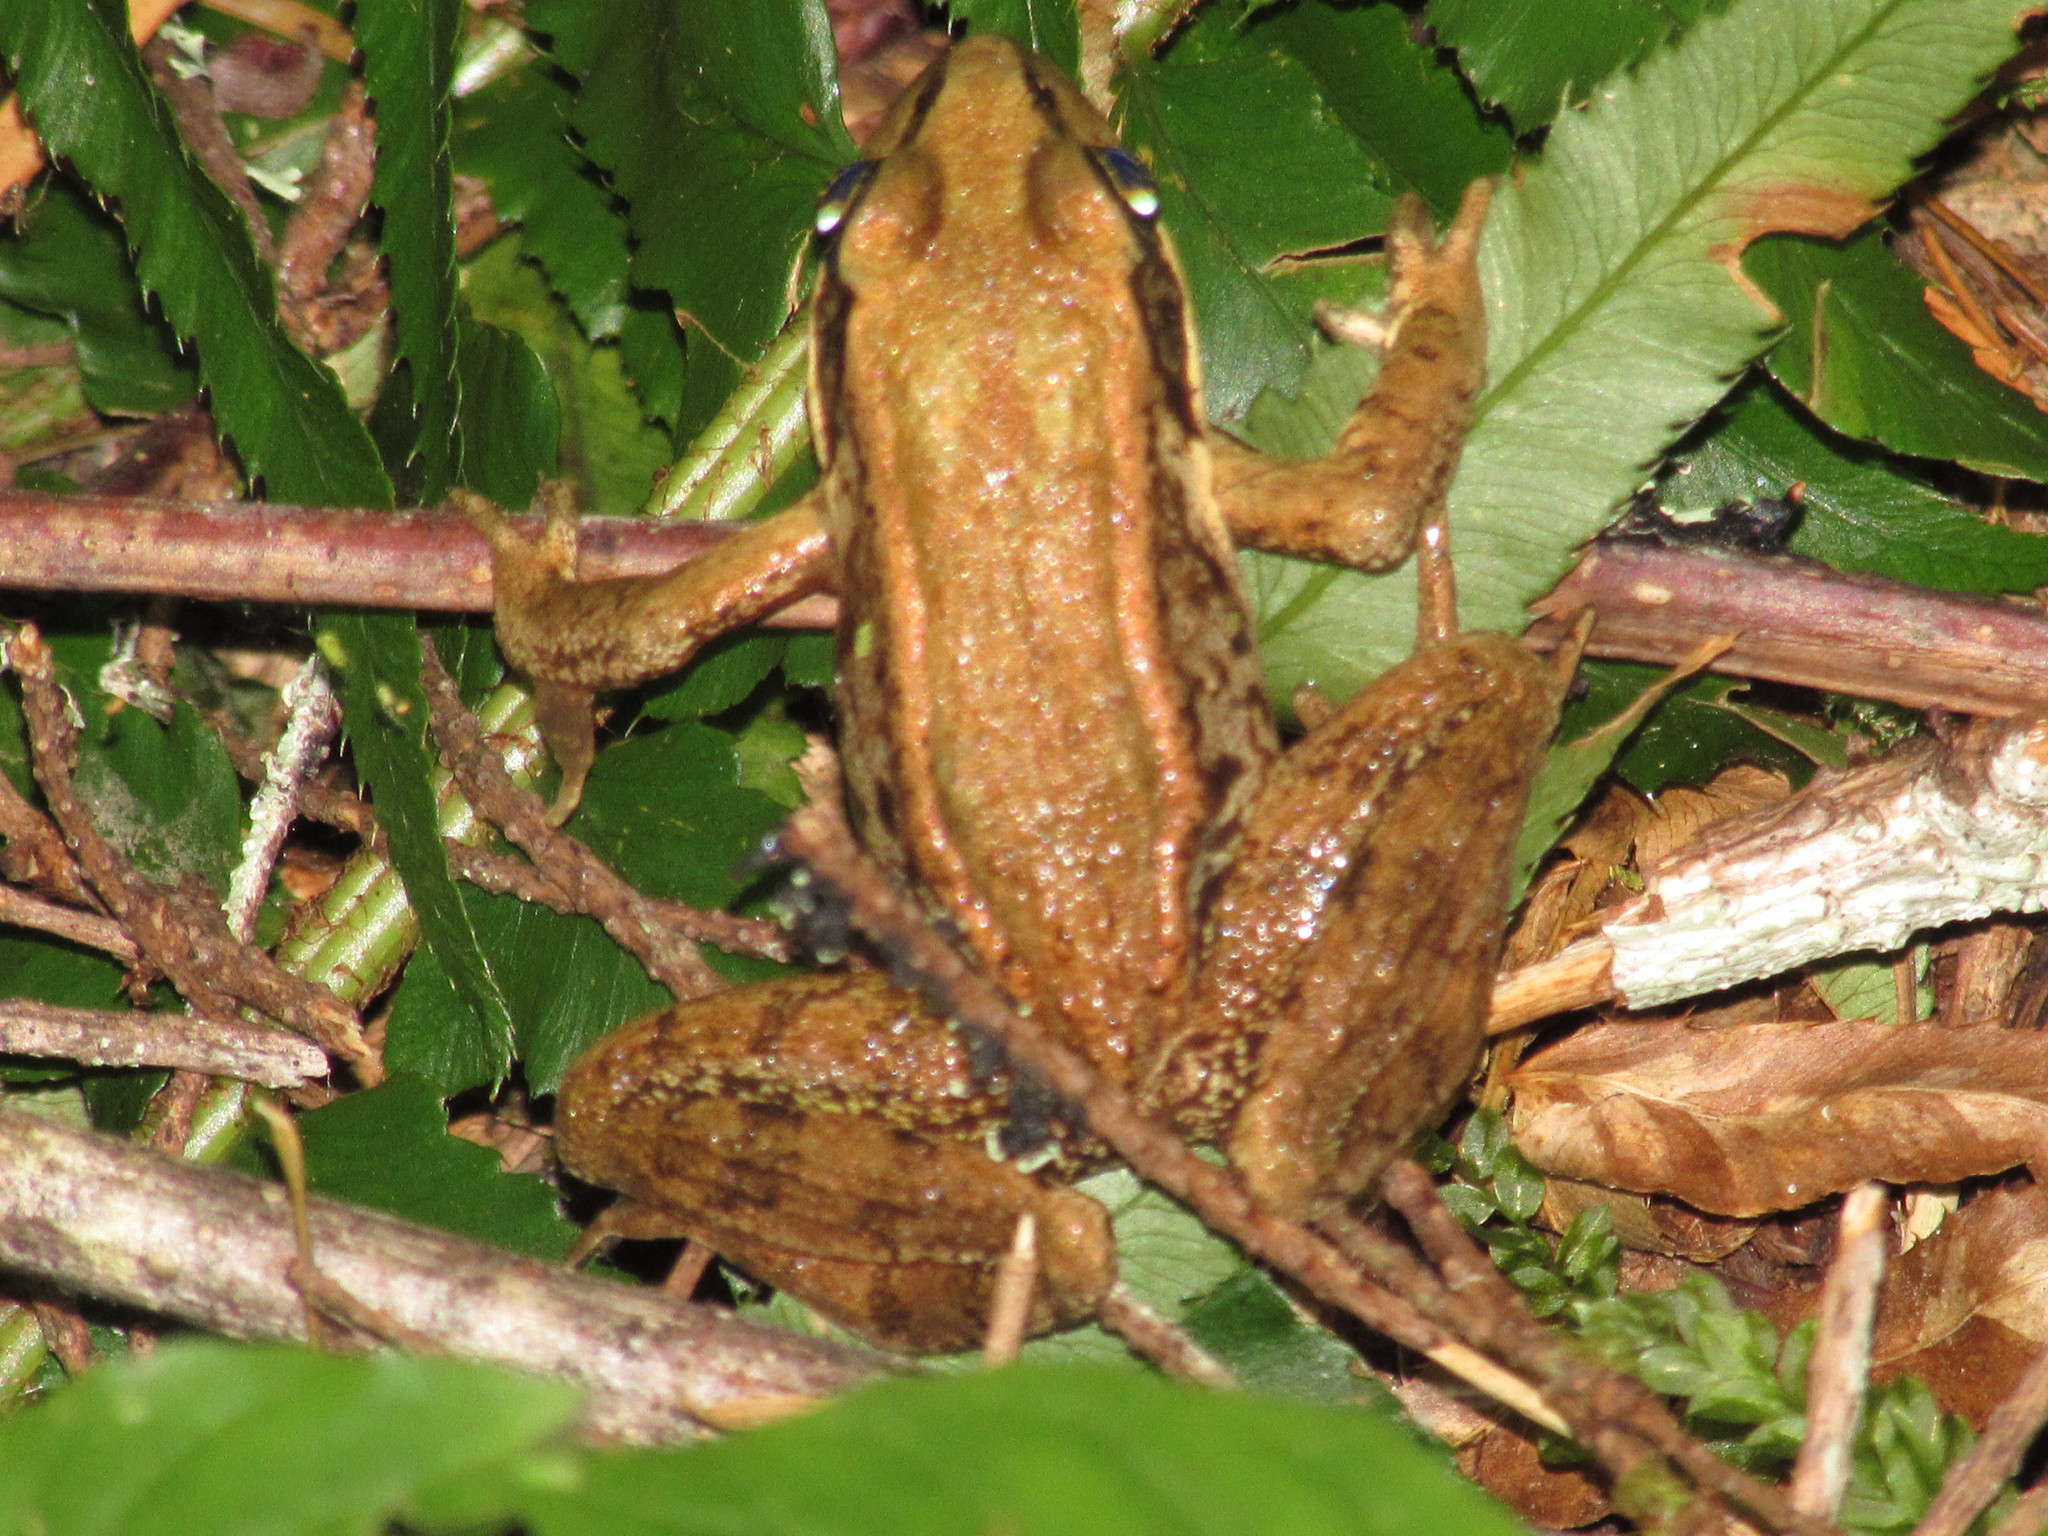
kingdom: Animalia
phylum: Chordata
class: Amphibia
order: Anura
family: Ranidae
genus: Rana
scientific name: Rana aurora
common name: Red-legged frog
